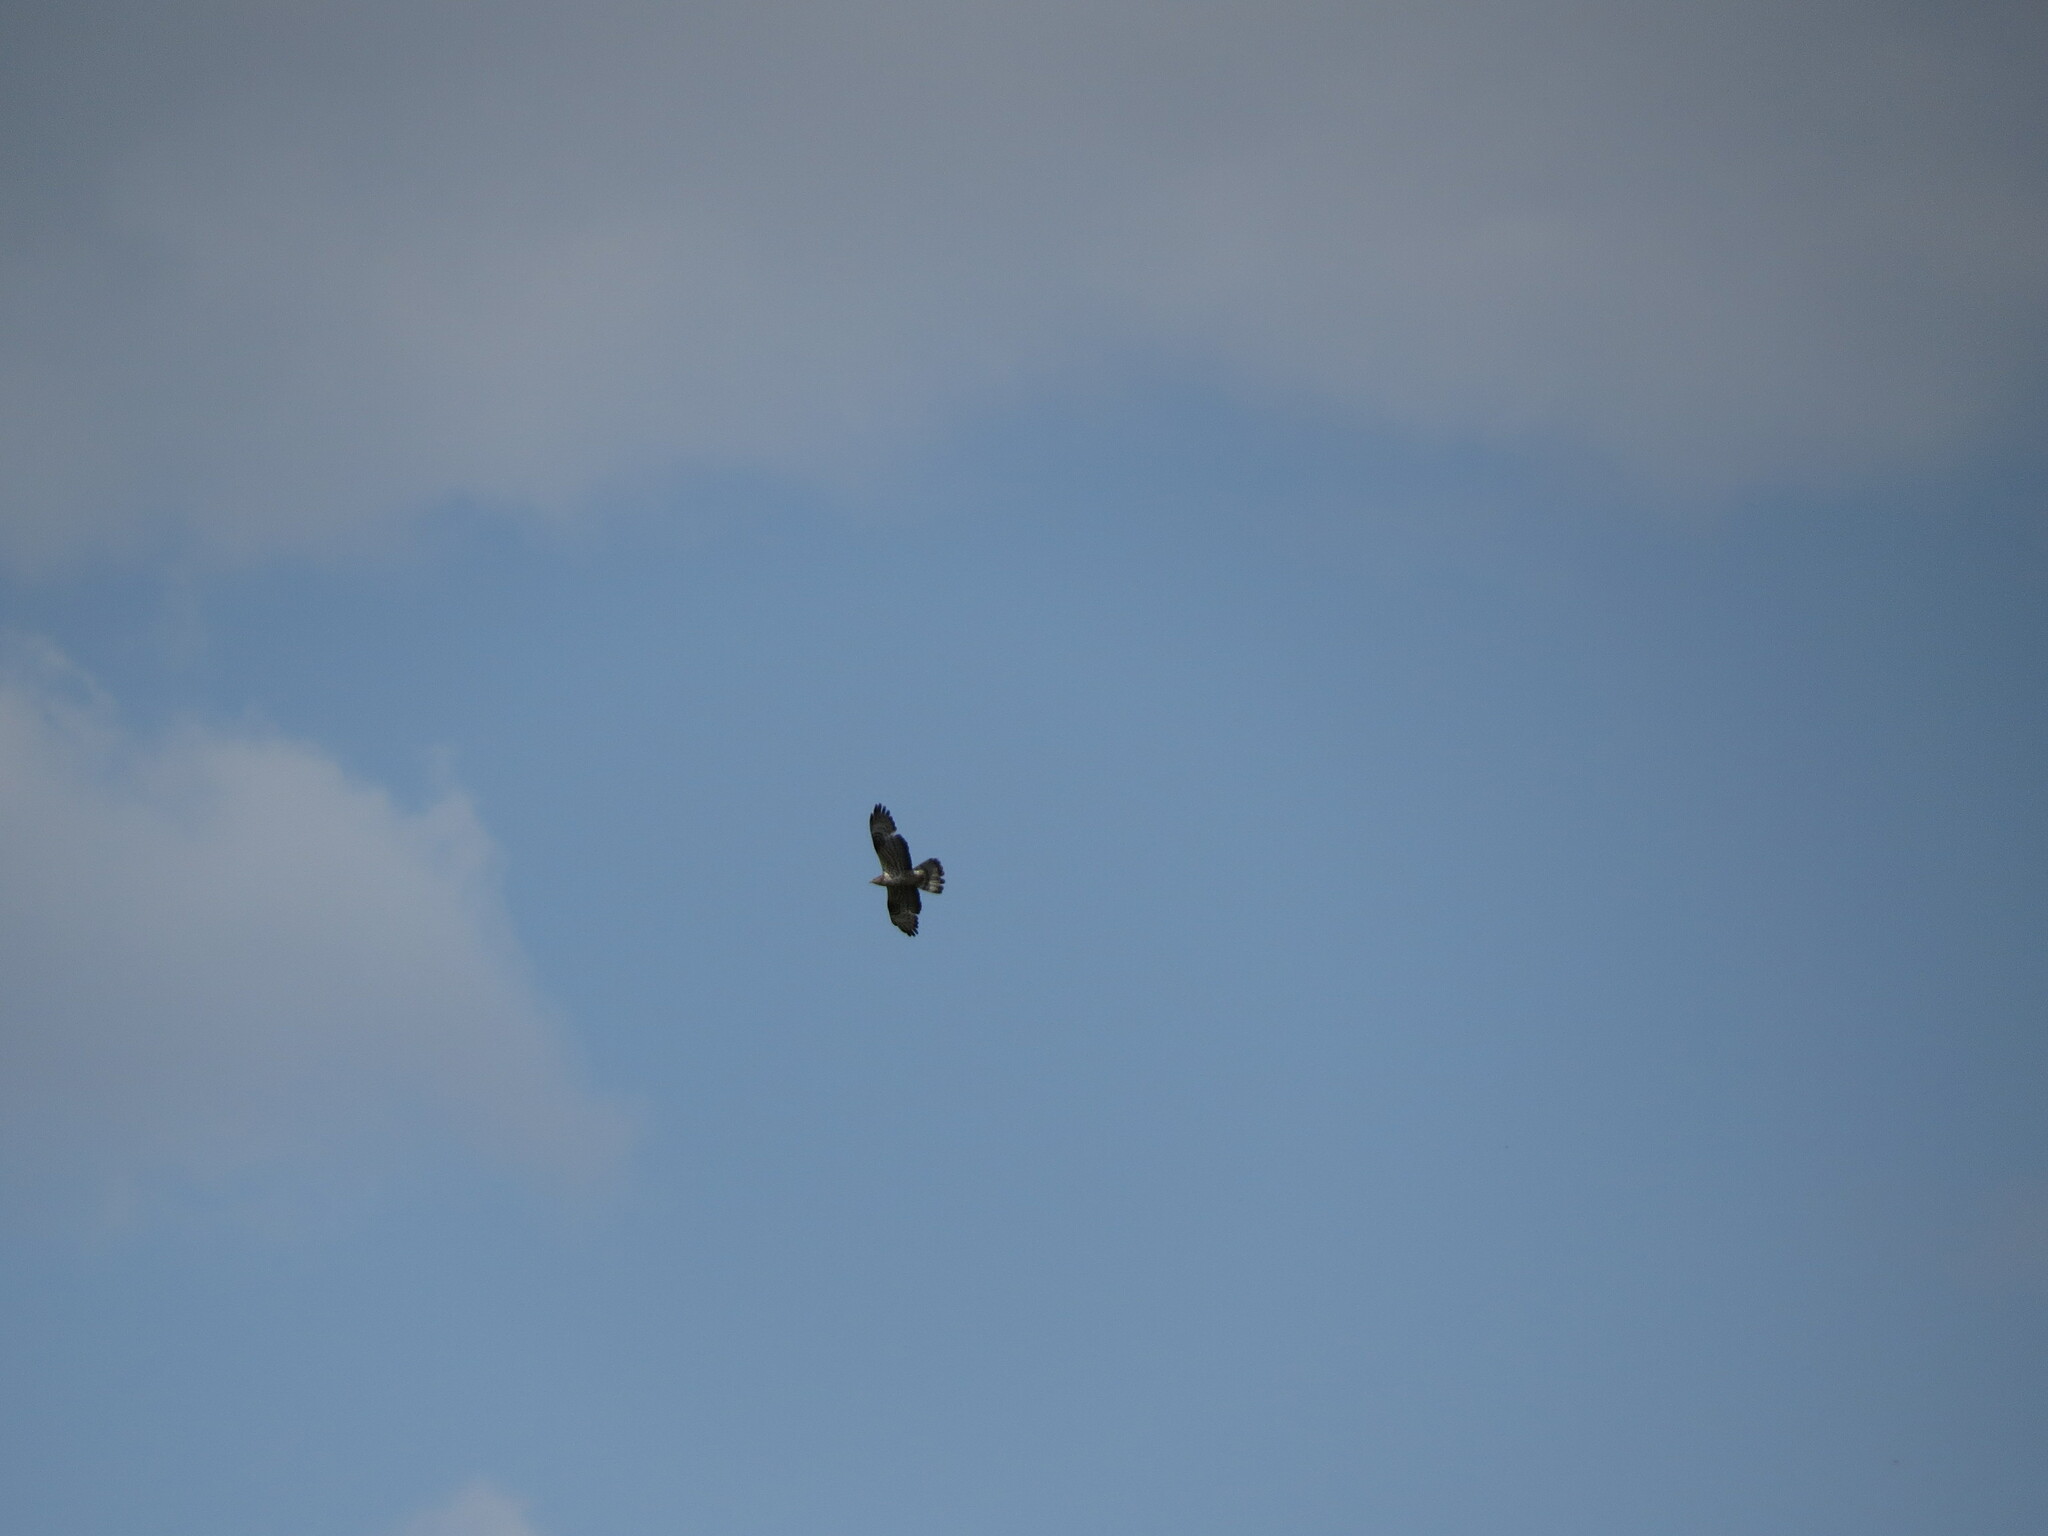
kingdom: Animalia
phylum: Chordata
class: Aves
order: Accipitriformes
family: Accipitridae
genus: Buteo
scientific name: Buteo buteo
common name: Common buzzard
